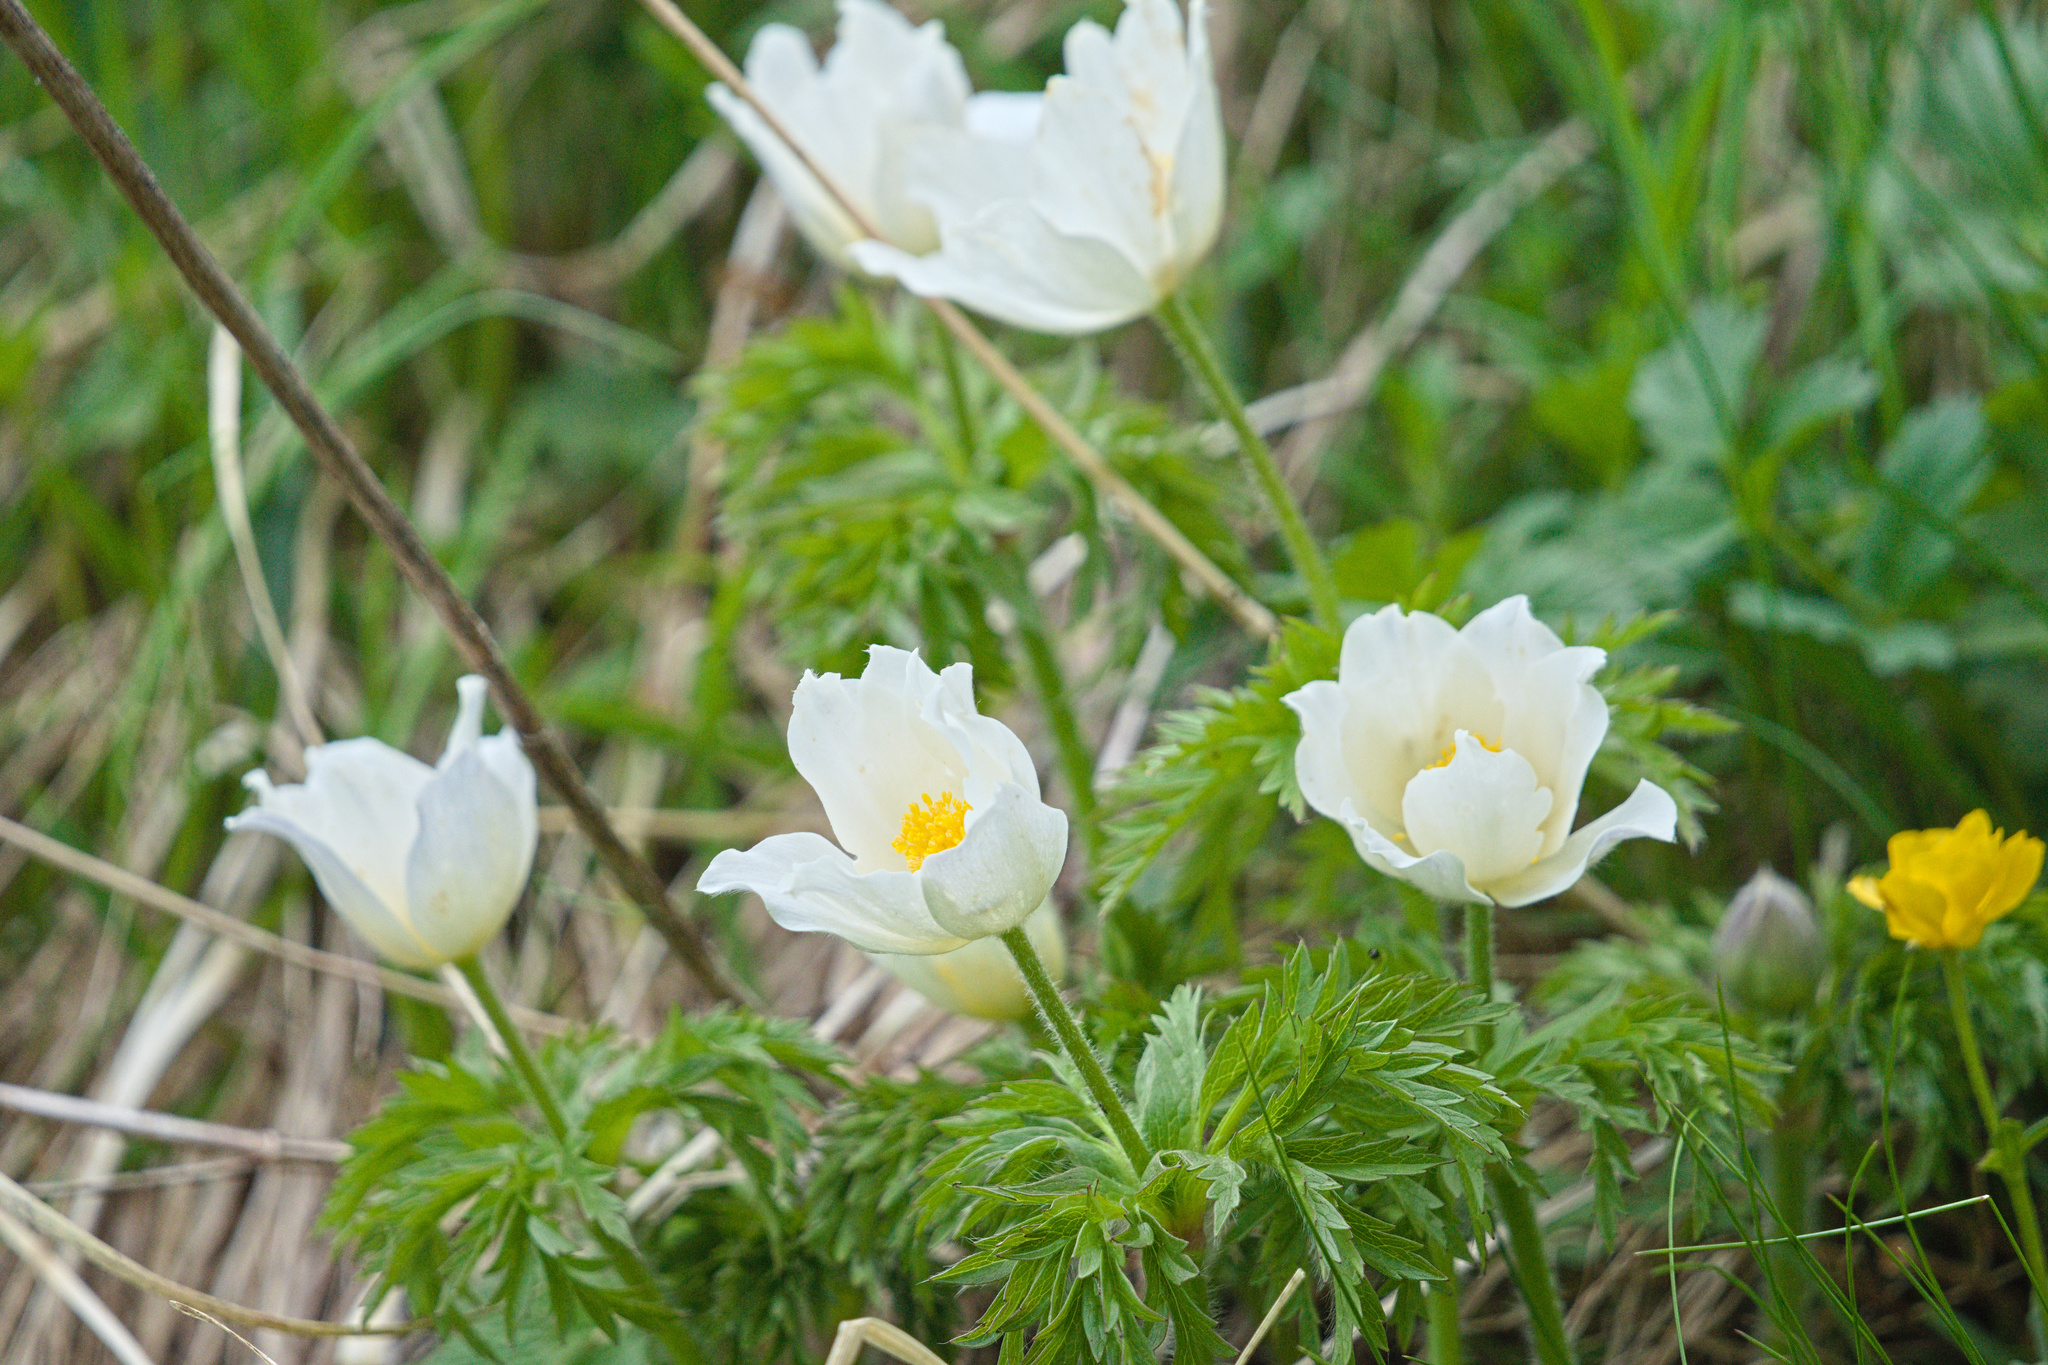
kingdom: Plantae
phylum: Tracheophyta
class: Magnoliopsida
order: Ranunculales
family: Ranunculaceae
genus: Pulsatilla
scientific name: Pulsatilla alpina
